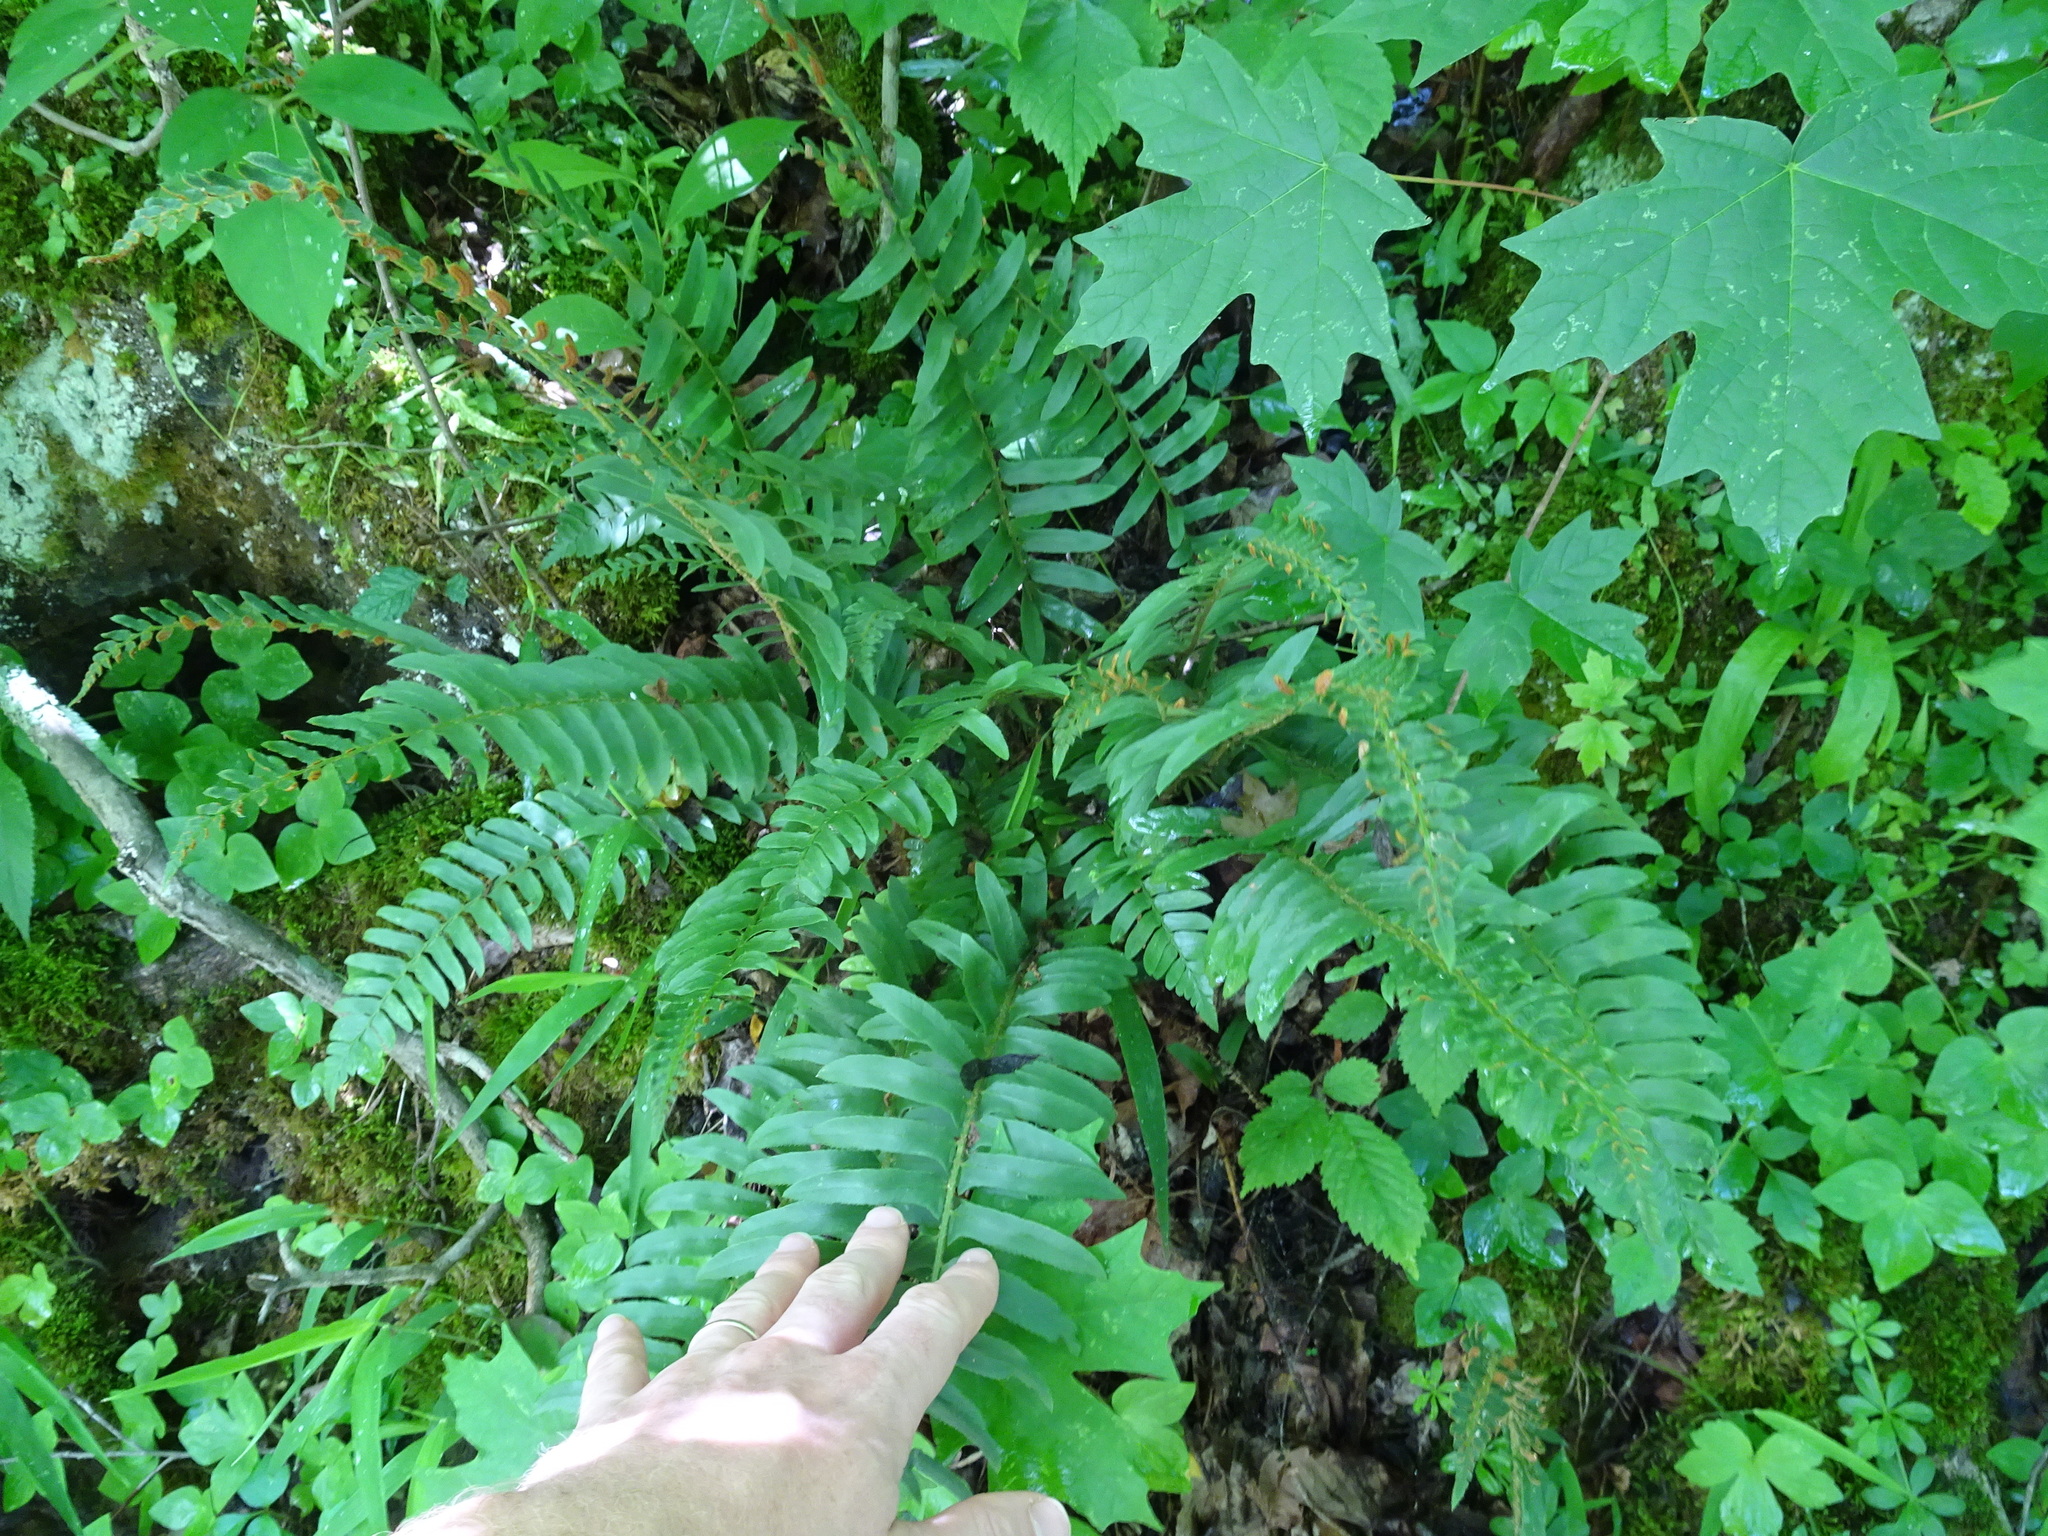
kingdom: Plantae
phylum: Tracheophyta
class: Polypodiopsida
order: Polypodiales
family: Dryopteridaceae
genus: Polystichum
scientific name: Polystichum acrostichoides
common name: Christmas fern
